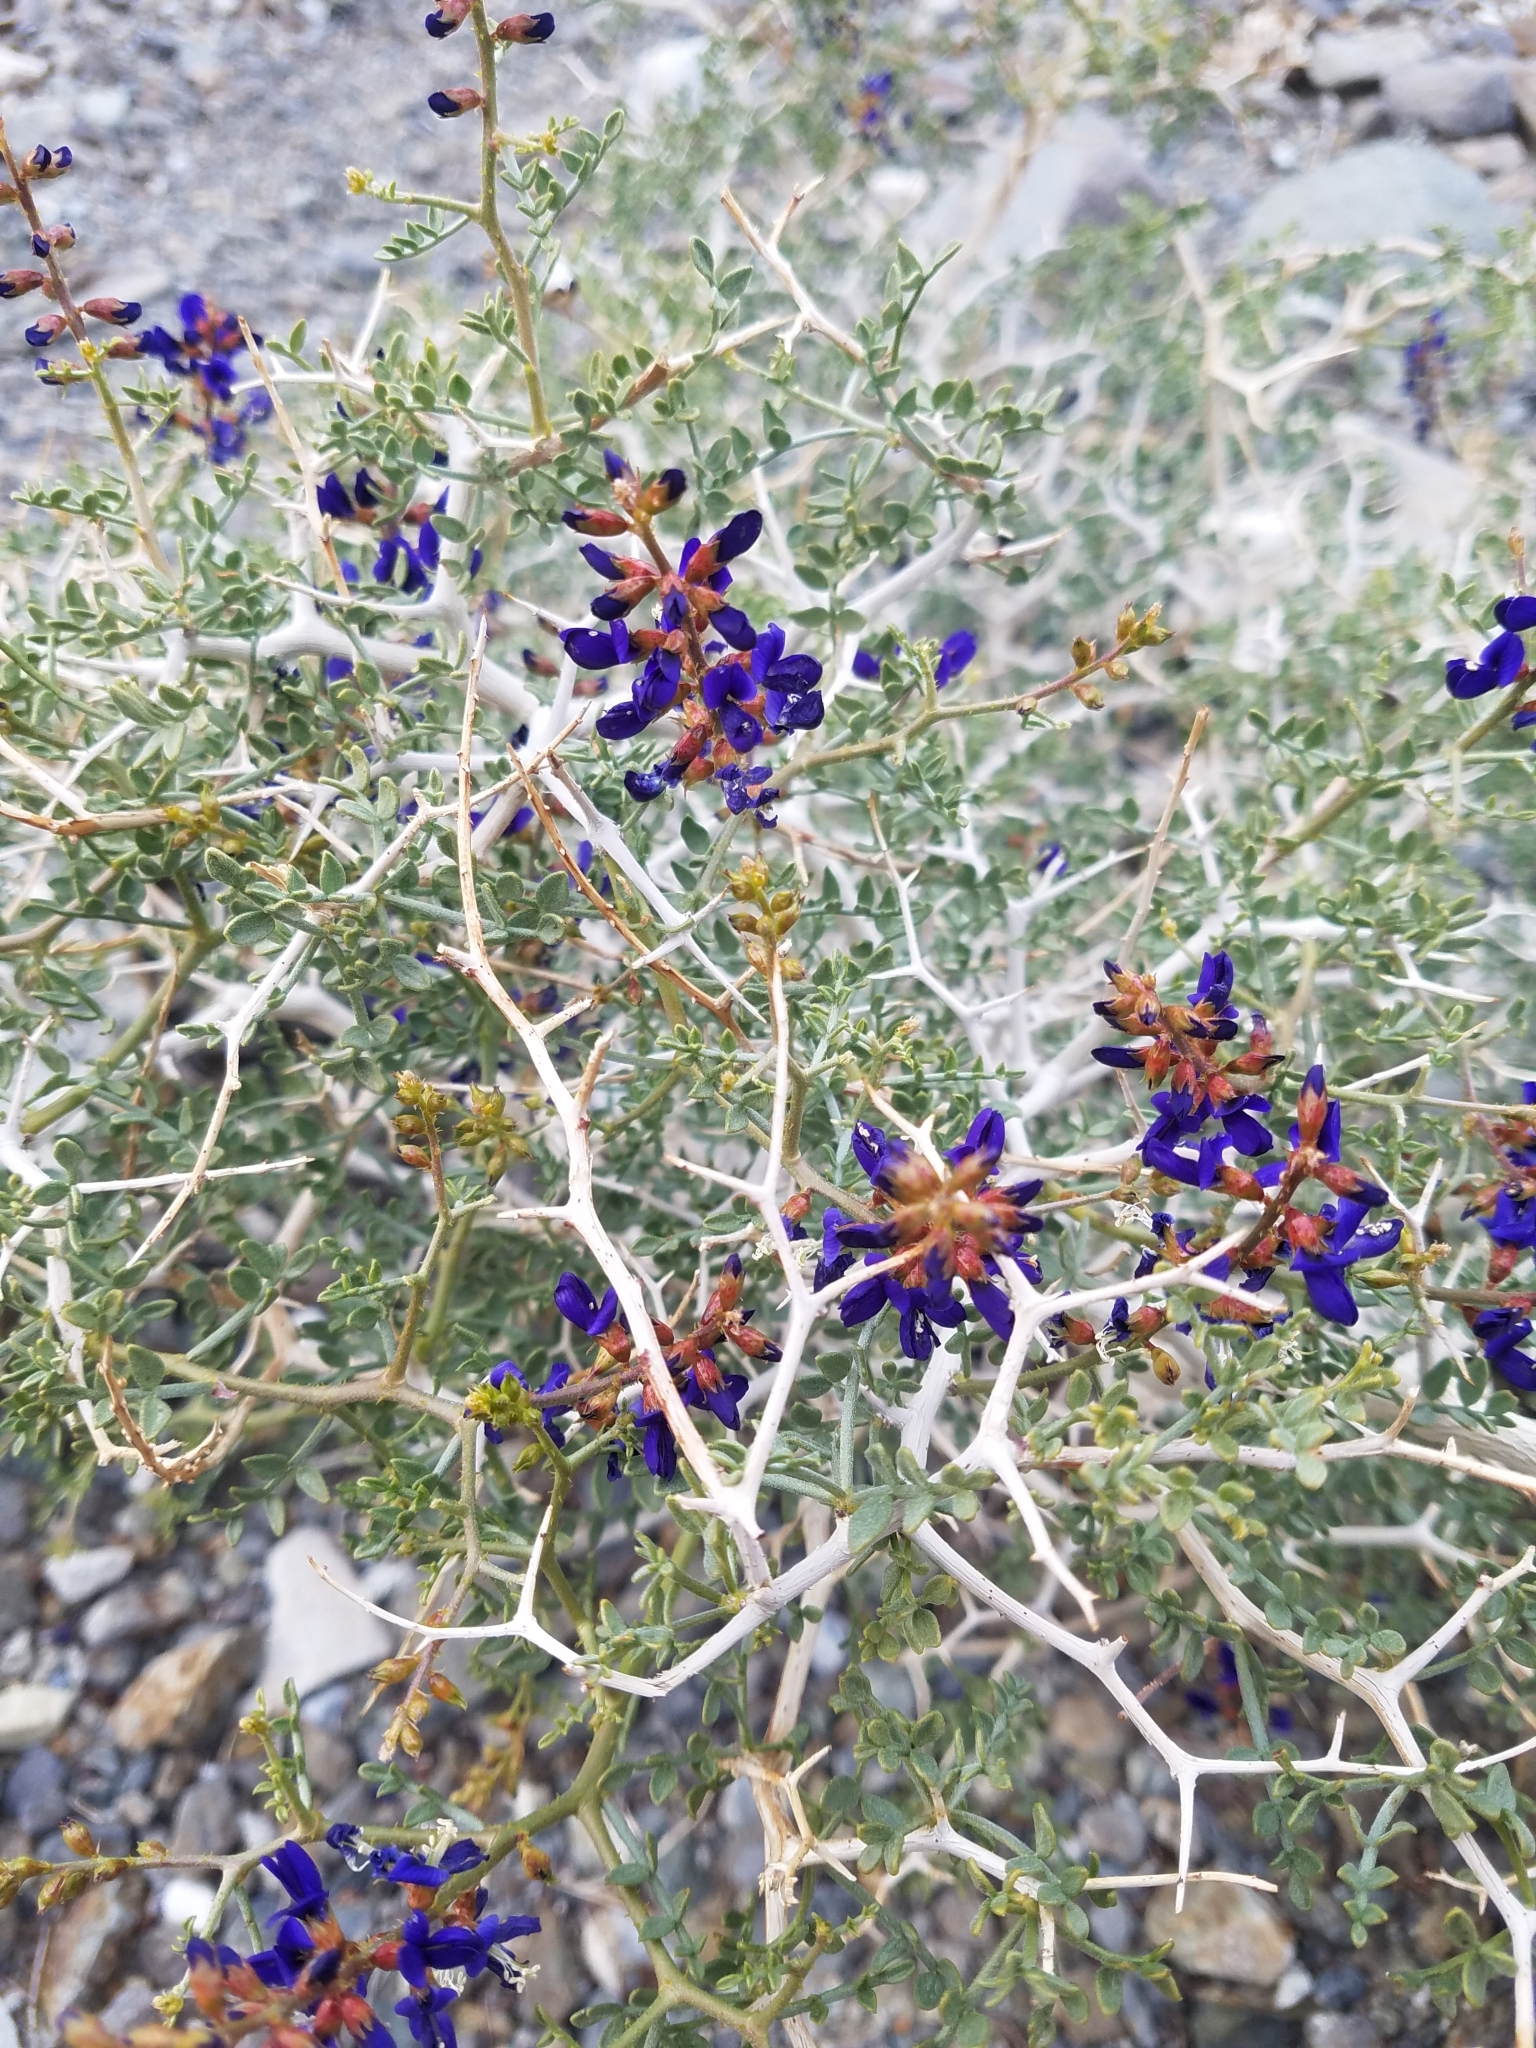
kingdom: Plantae
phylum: Tracheophyta
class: Magnoliopsida
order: Fabales
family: Fabaceae
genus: Psorothamnus
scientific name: Psorothamnus arborescens
